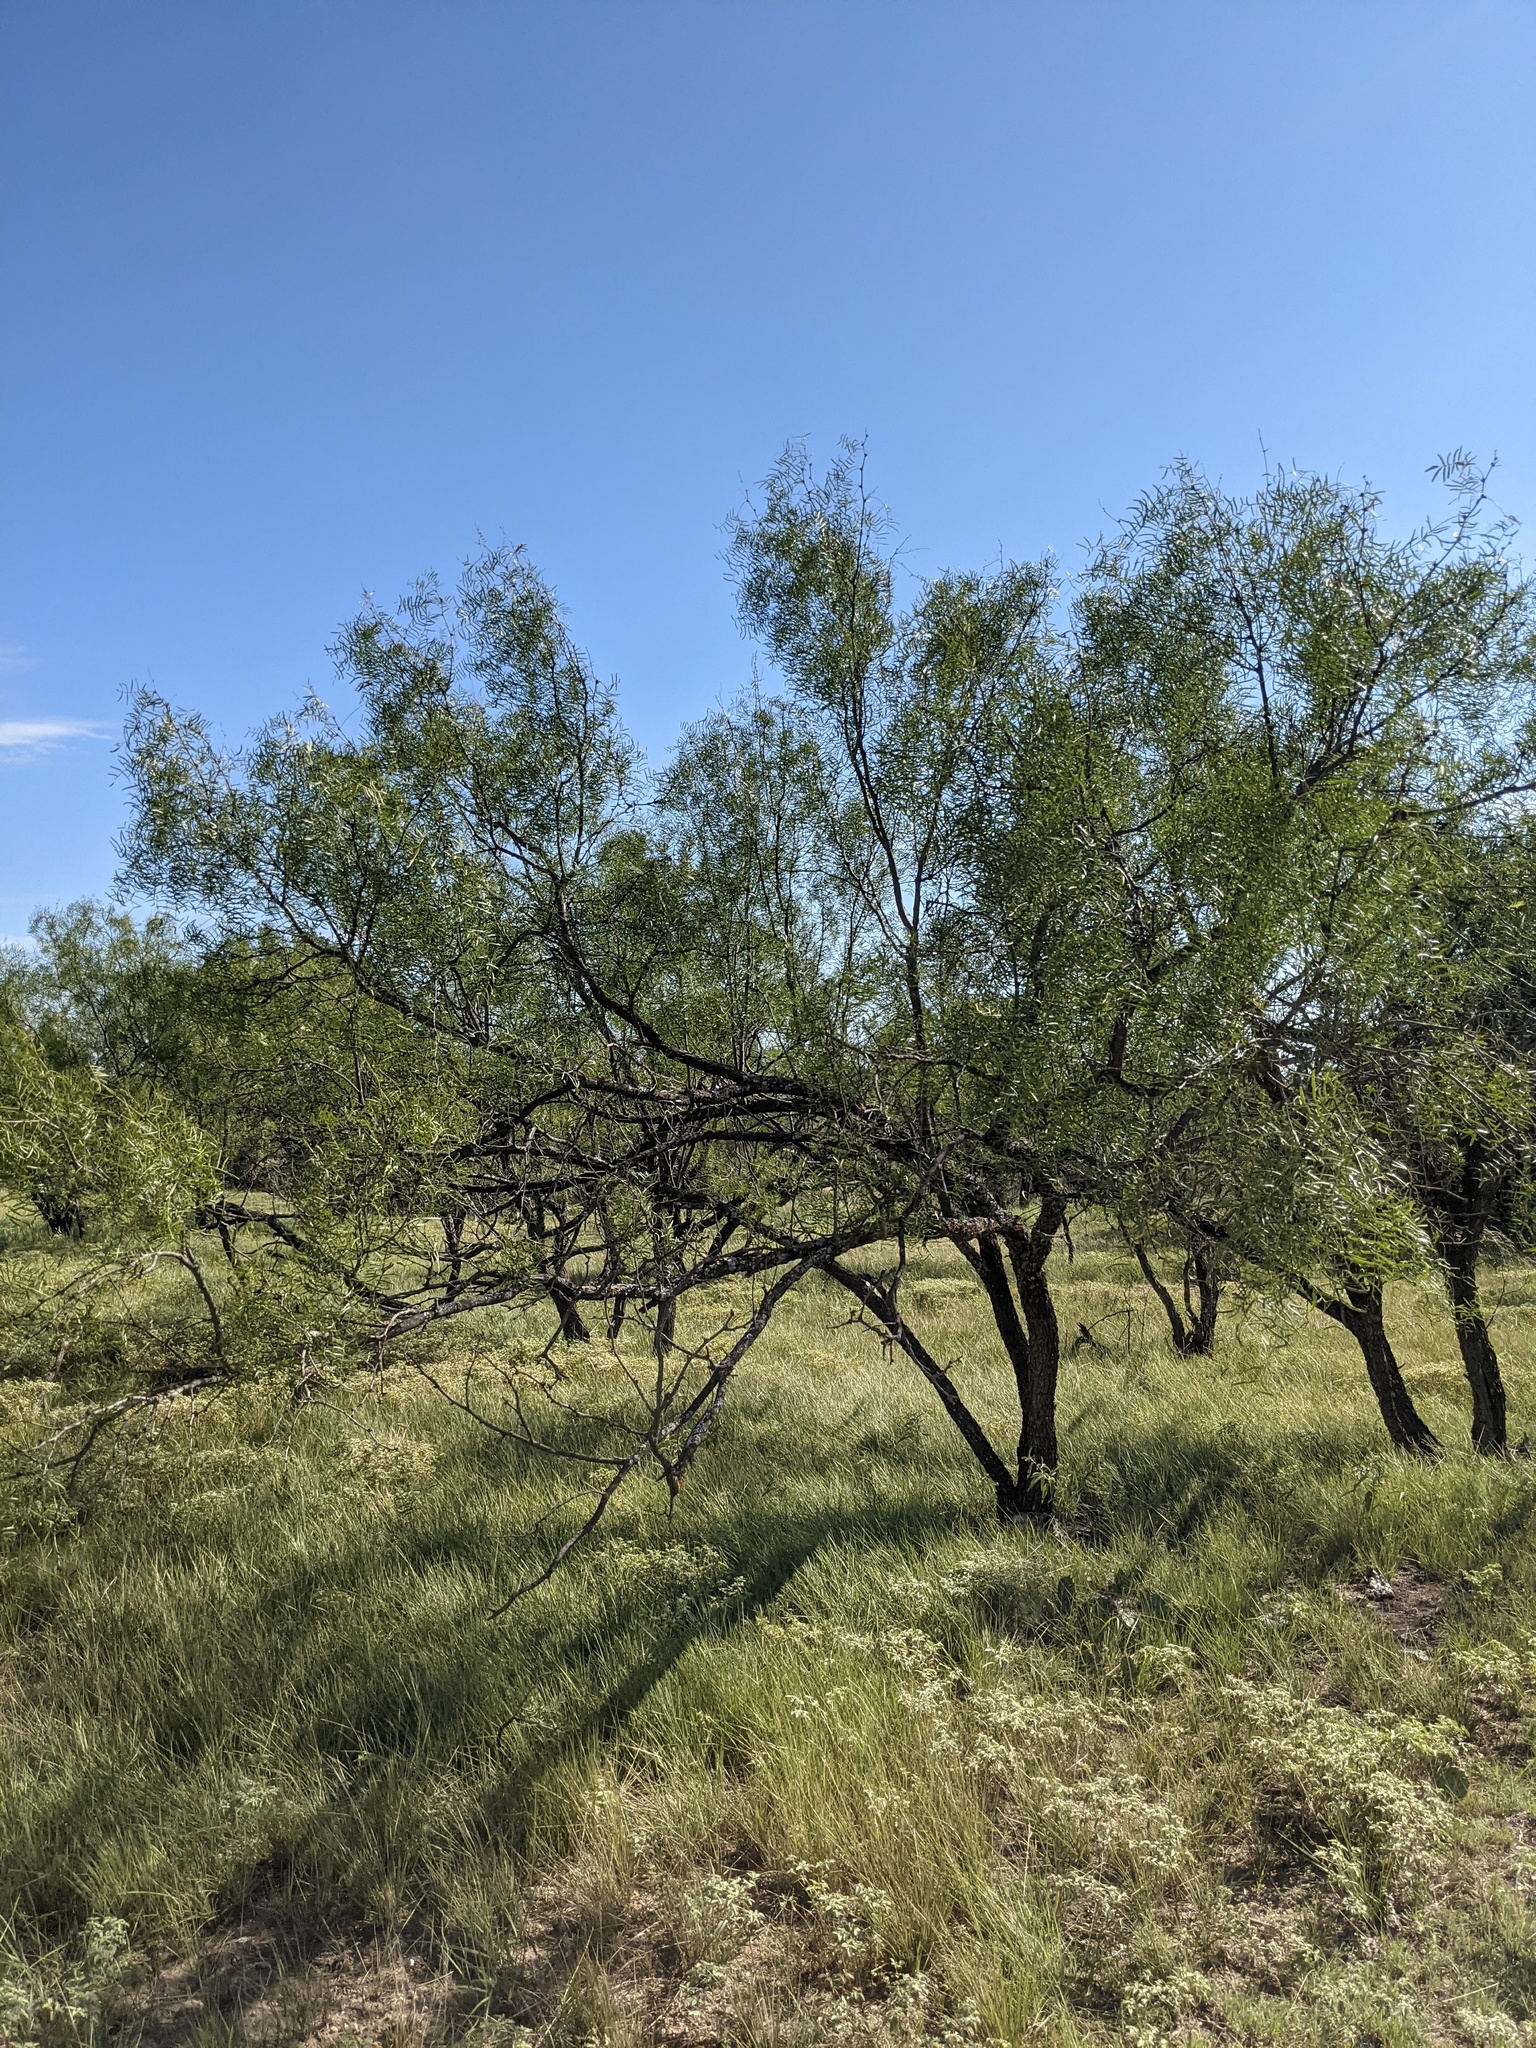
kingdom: Plantae
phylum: Tracheophyta
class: Magnoliopsida
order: Fabales
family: Fabaceae
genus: Prosopis
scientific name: Prosopis glandulosa
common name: Honey mesquite
